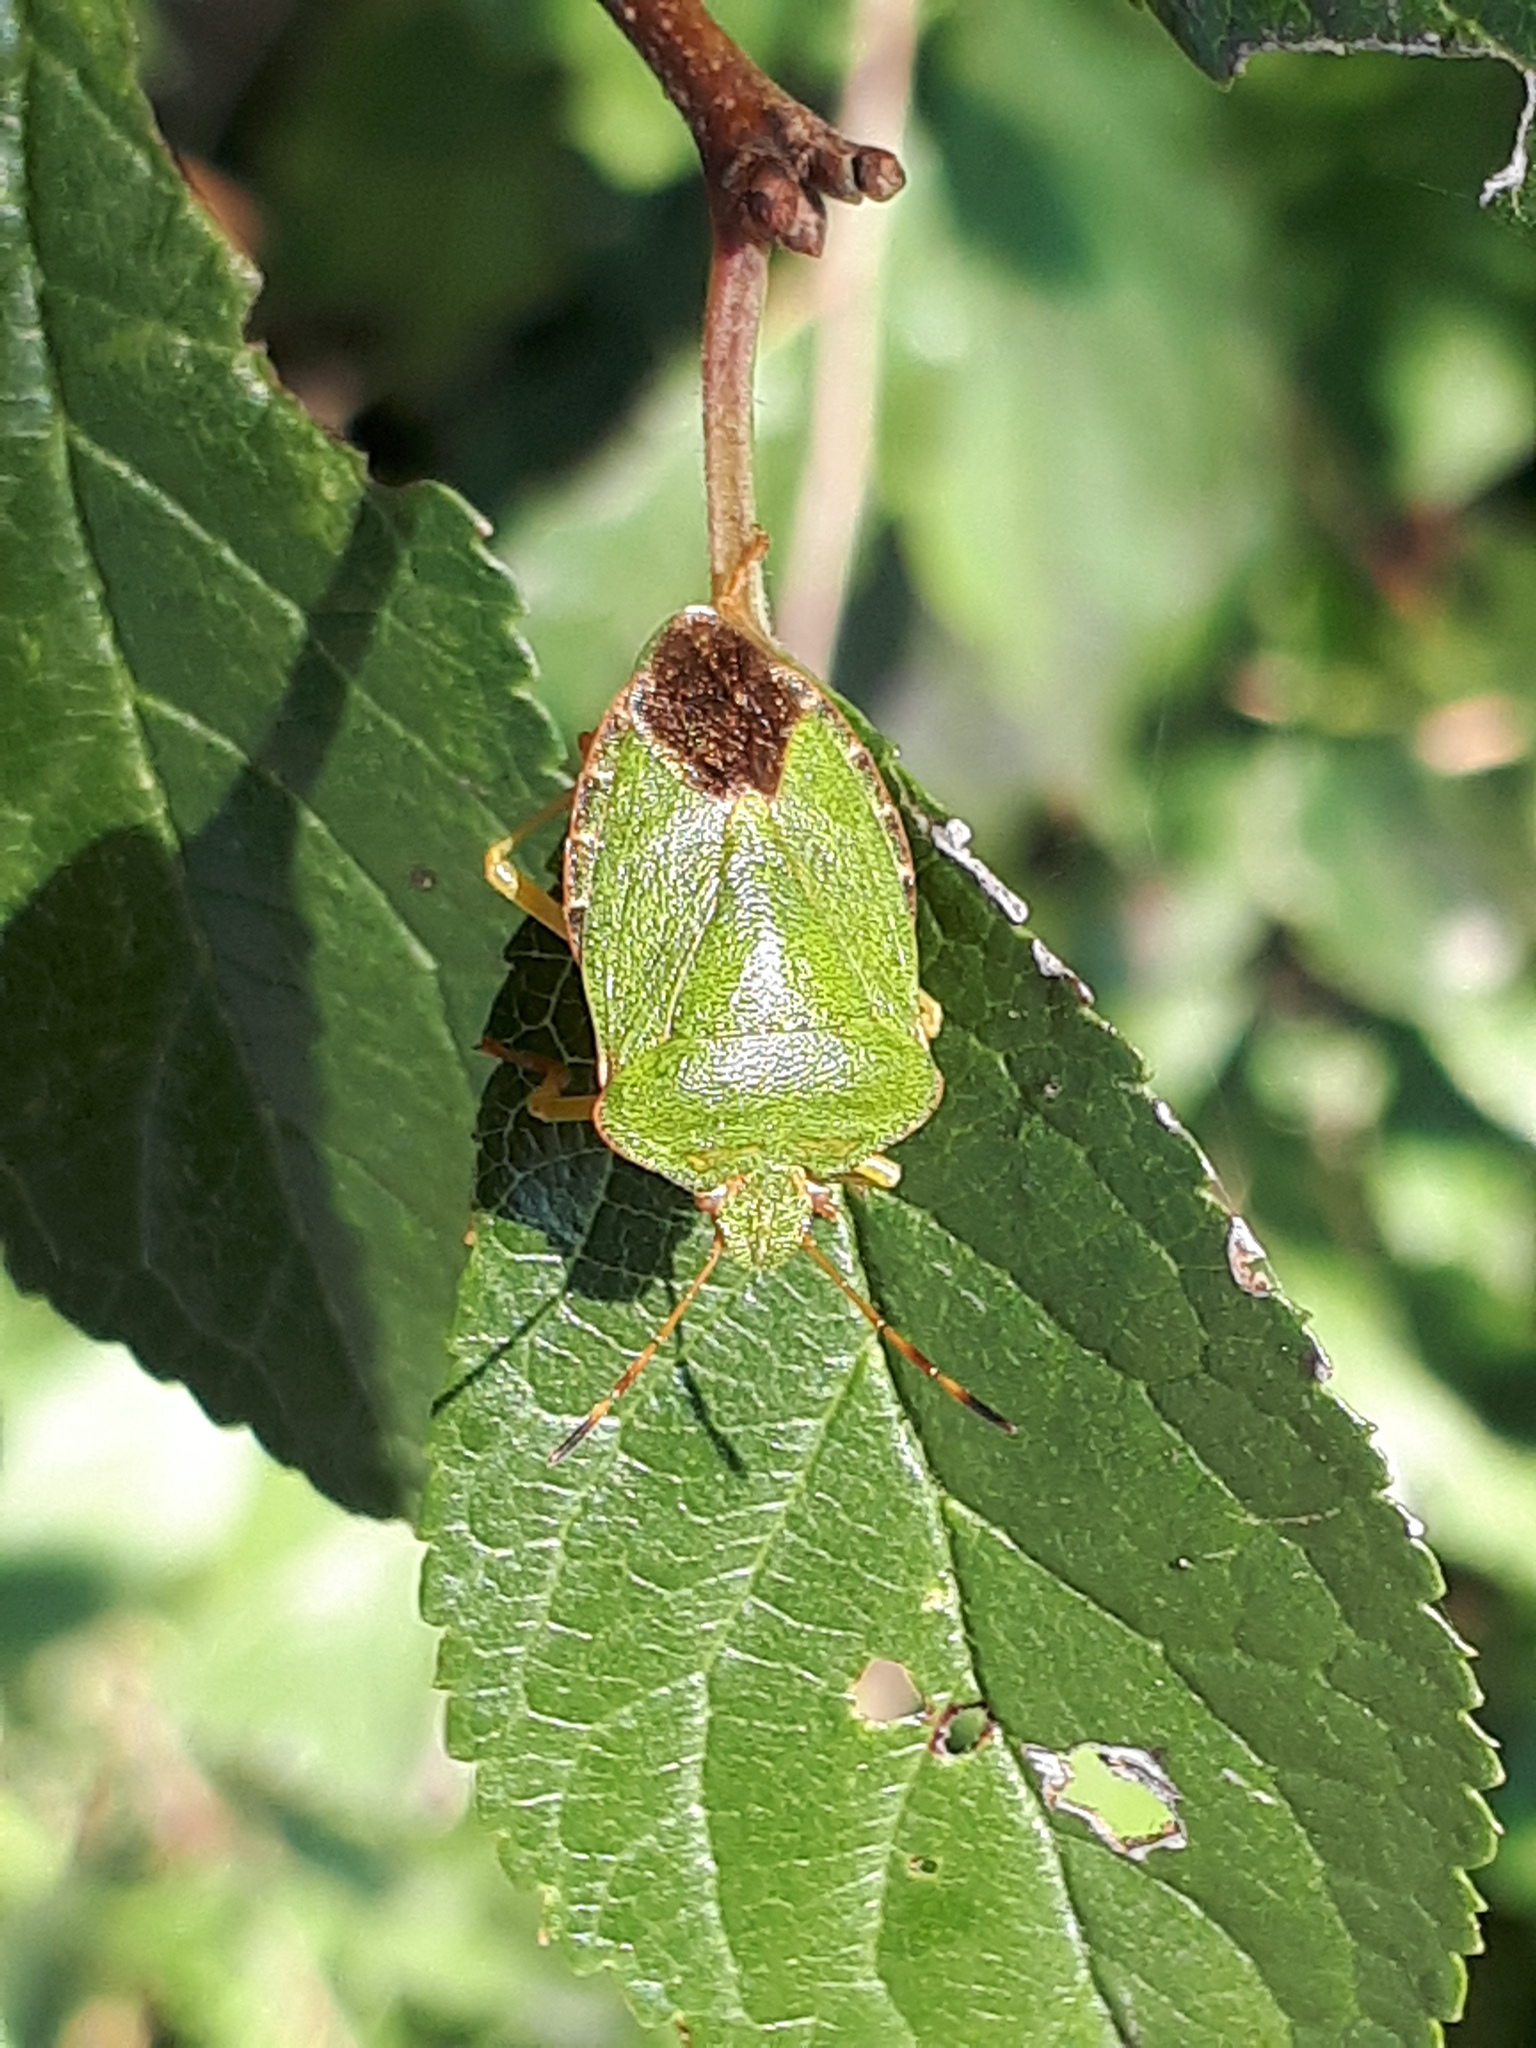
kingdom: Animalia
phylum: Arthropoda
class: Insecta
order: Hemiptera
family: Pentatomidae
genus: Palomena
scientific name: Palomena prasina
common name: Green shieldbug
